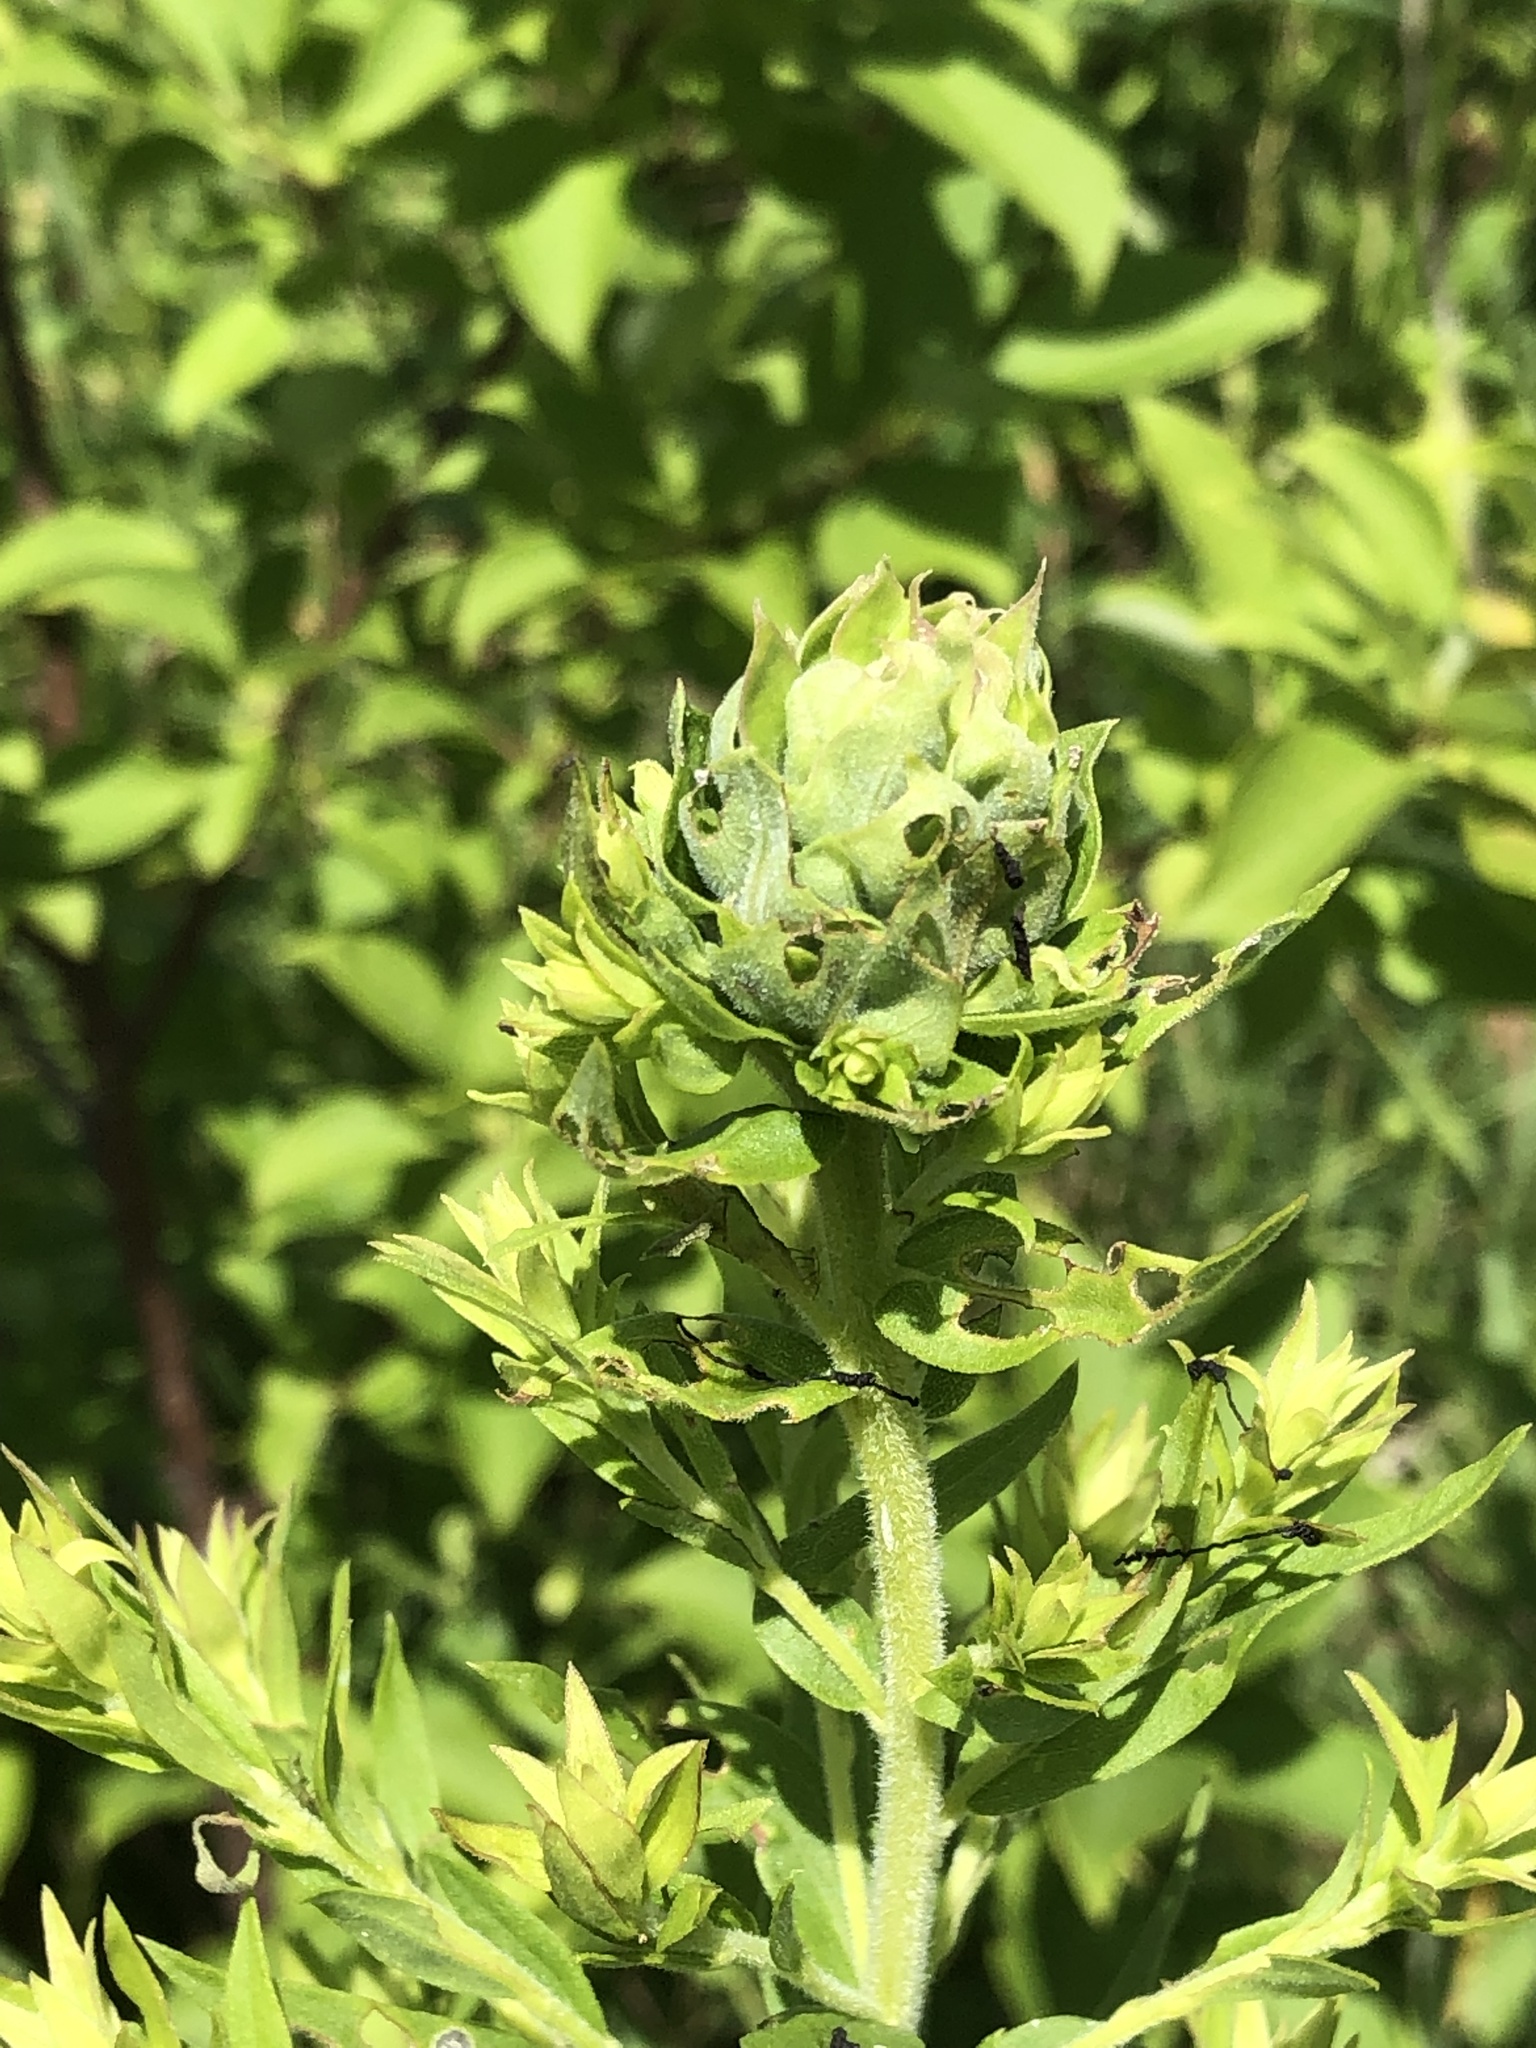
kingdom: Animalia
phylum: Arthropoda
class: Insecta
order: Diptera
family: Cecidomyiidae
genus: Rhopalomyia
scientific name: Rhopalomyia solidaginis
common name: Goldenrod bunch gall midge
